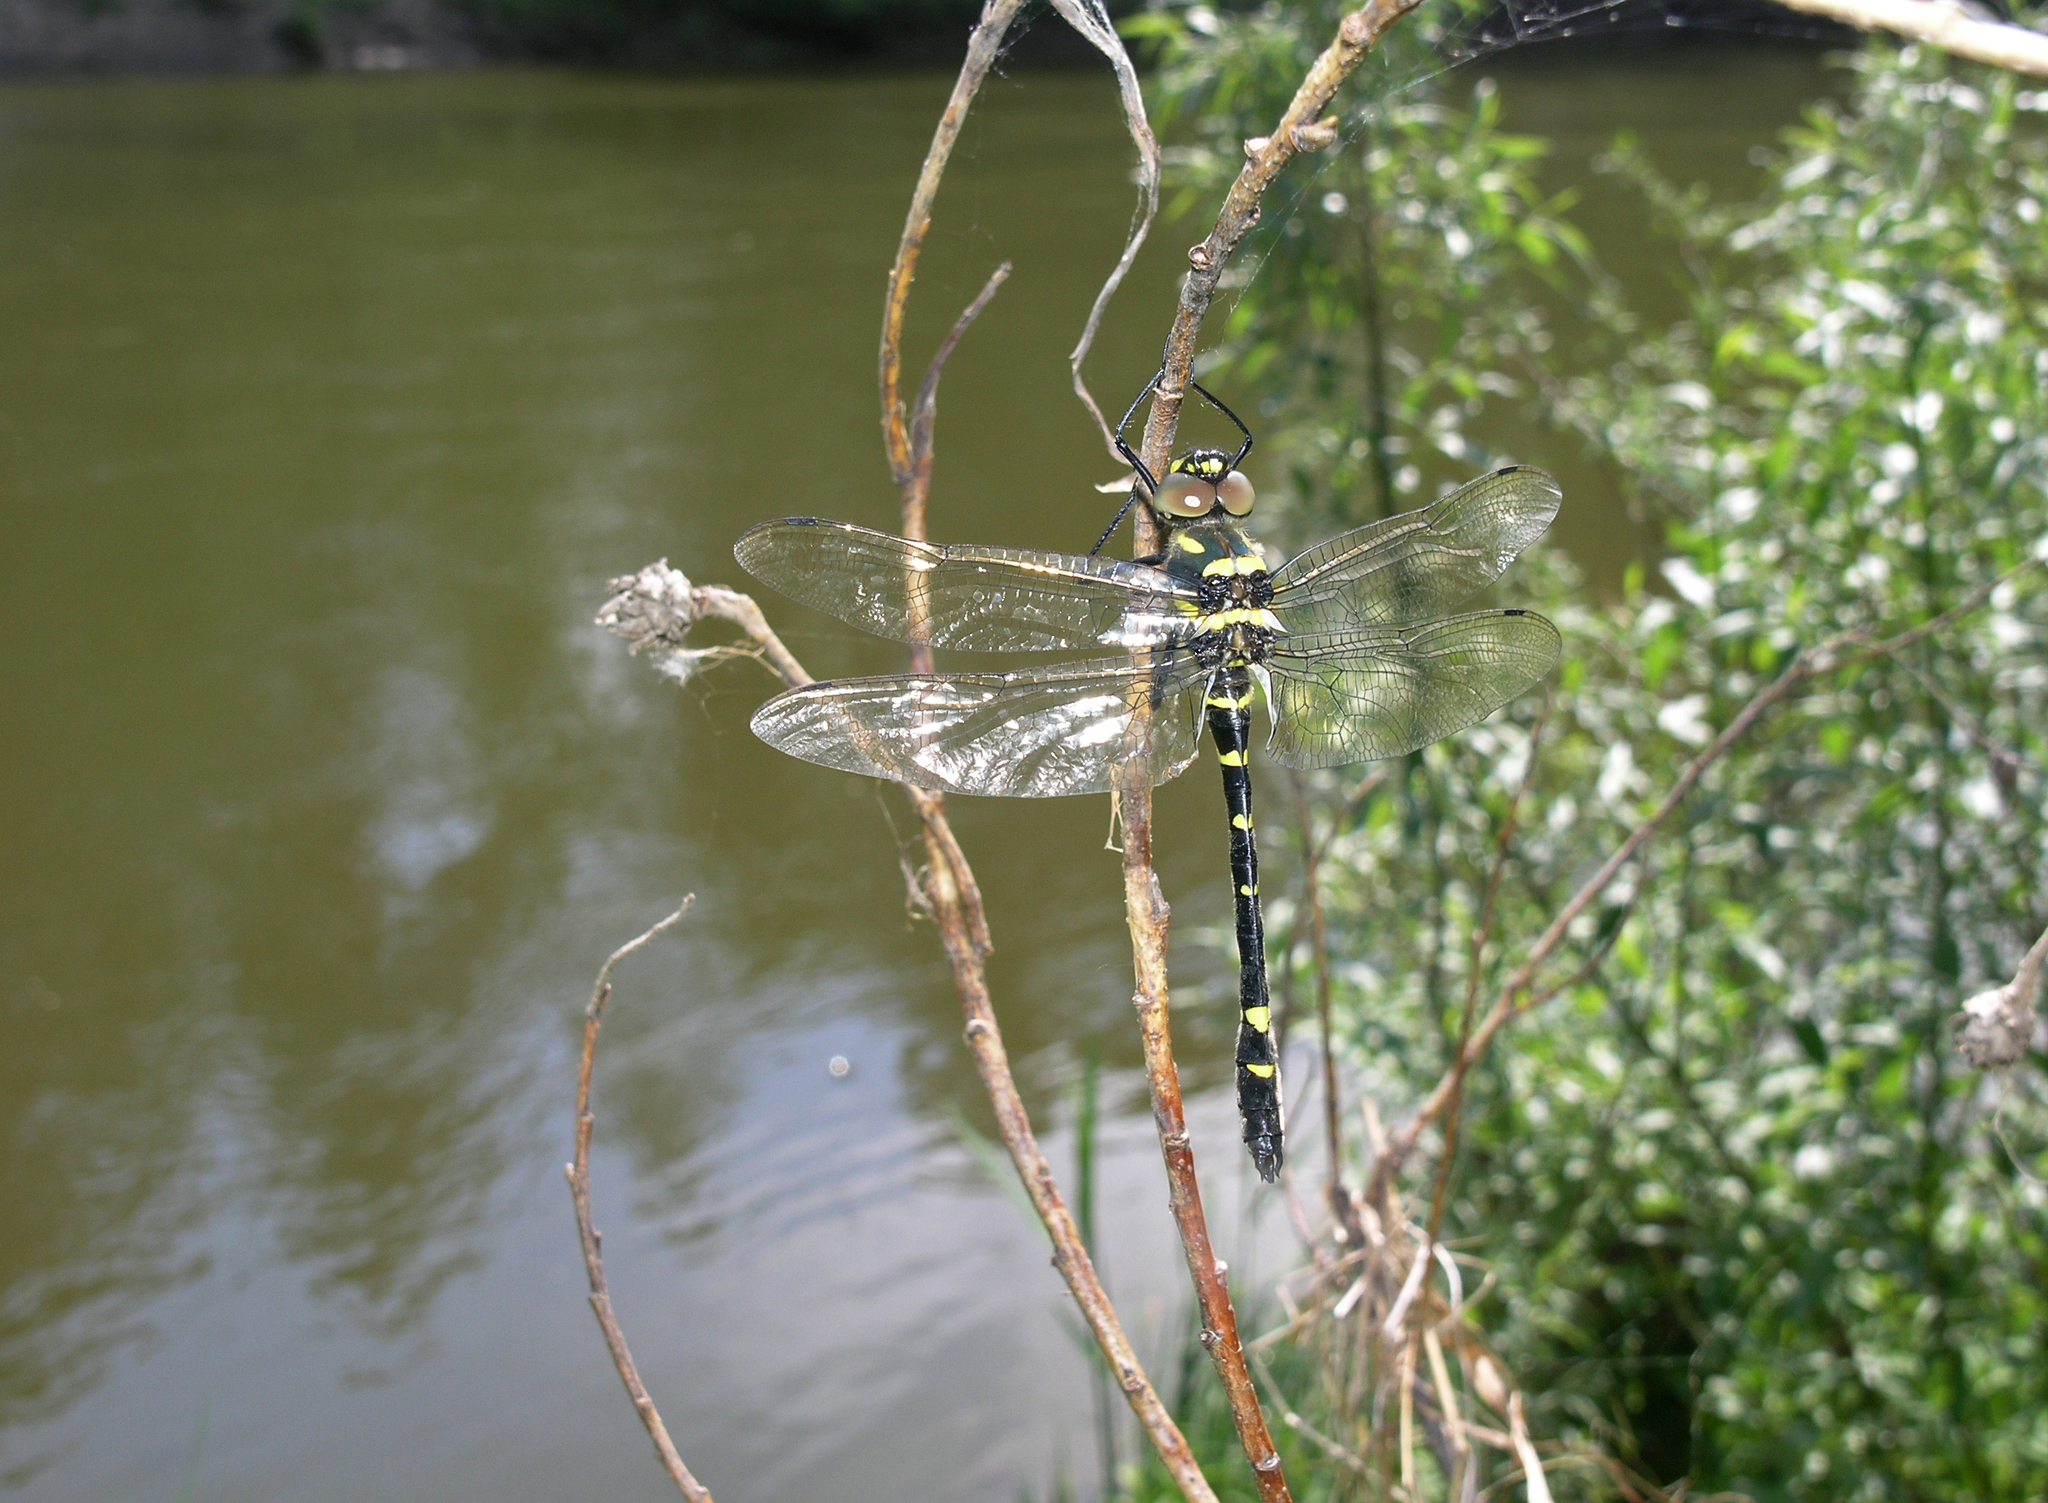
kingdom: Animalia
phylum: Arthropoda
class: Insecta
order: Odonata
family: Macromiidae
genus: Macromia
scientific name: Macromia amphigena
